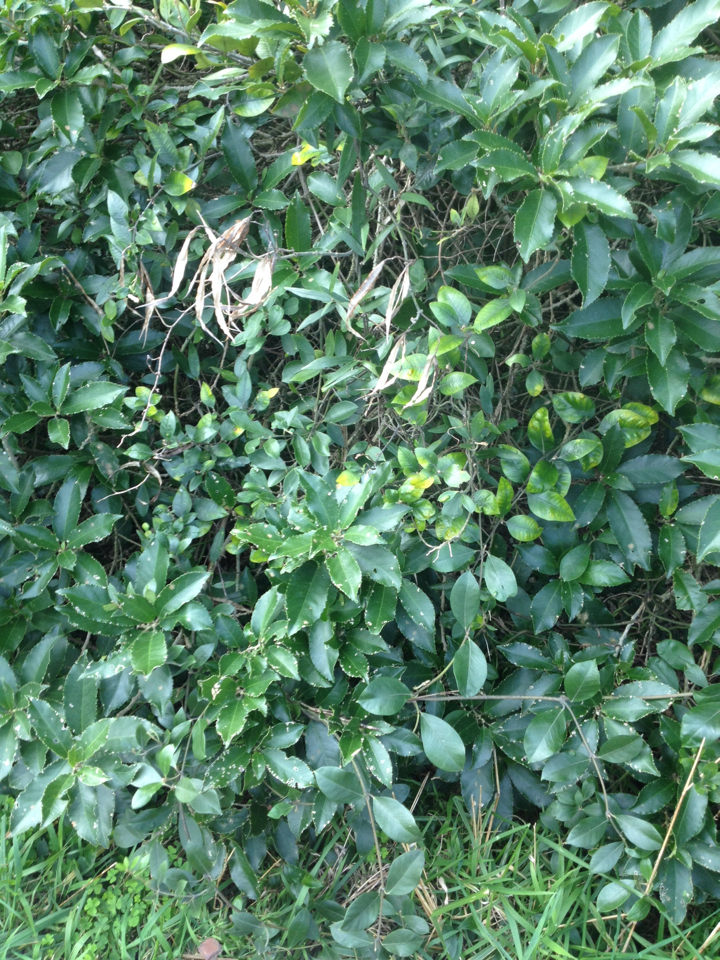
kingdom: Plantae
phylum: Tracheophyta
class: Magnoliopsida
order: Gentianales
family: Apocynaceae
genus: Parsonsia
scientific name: Parsonsia heterophylla
